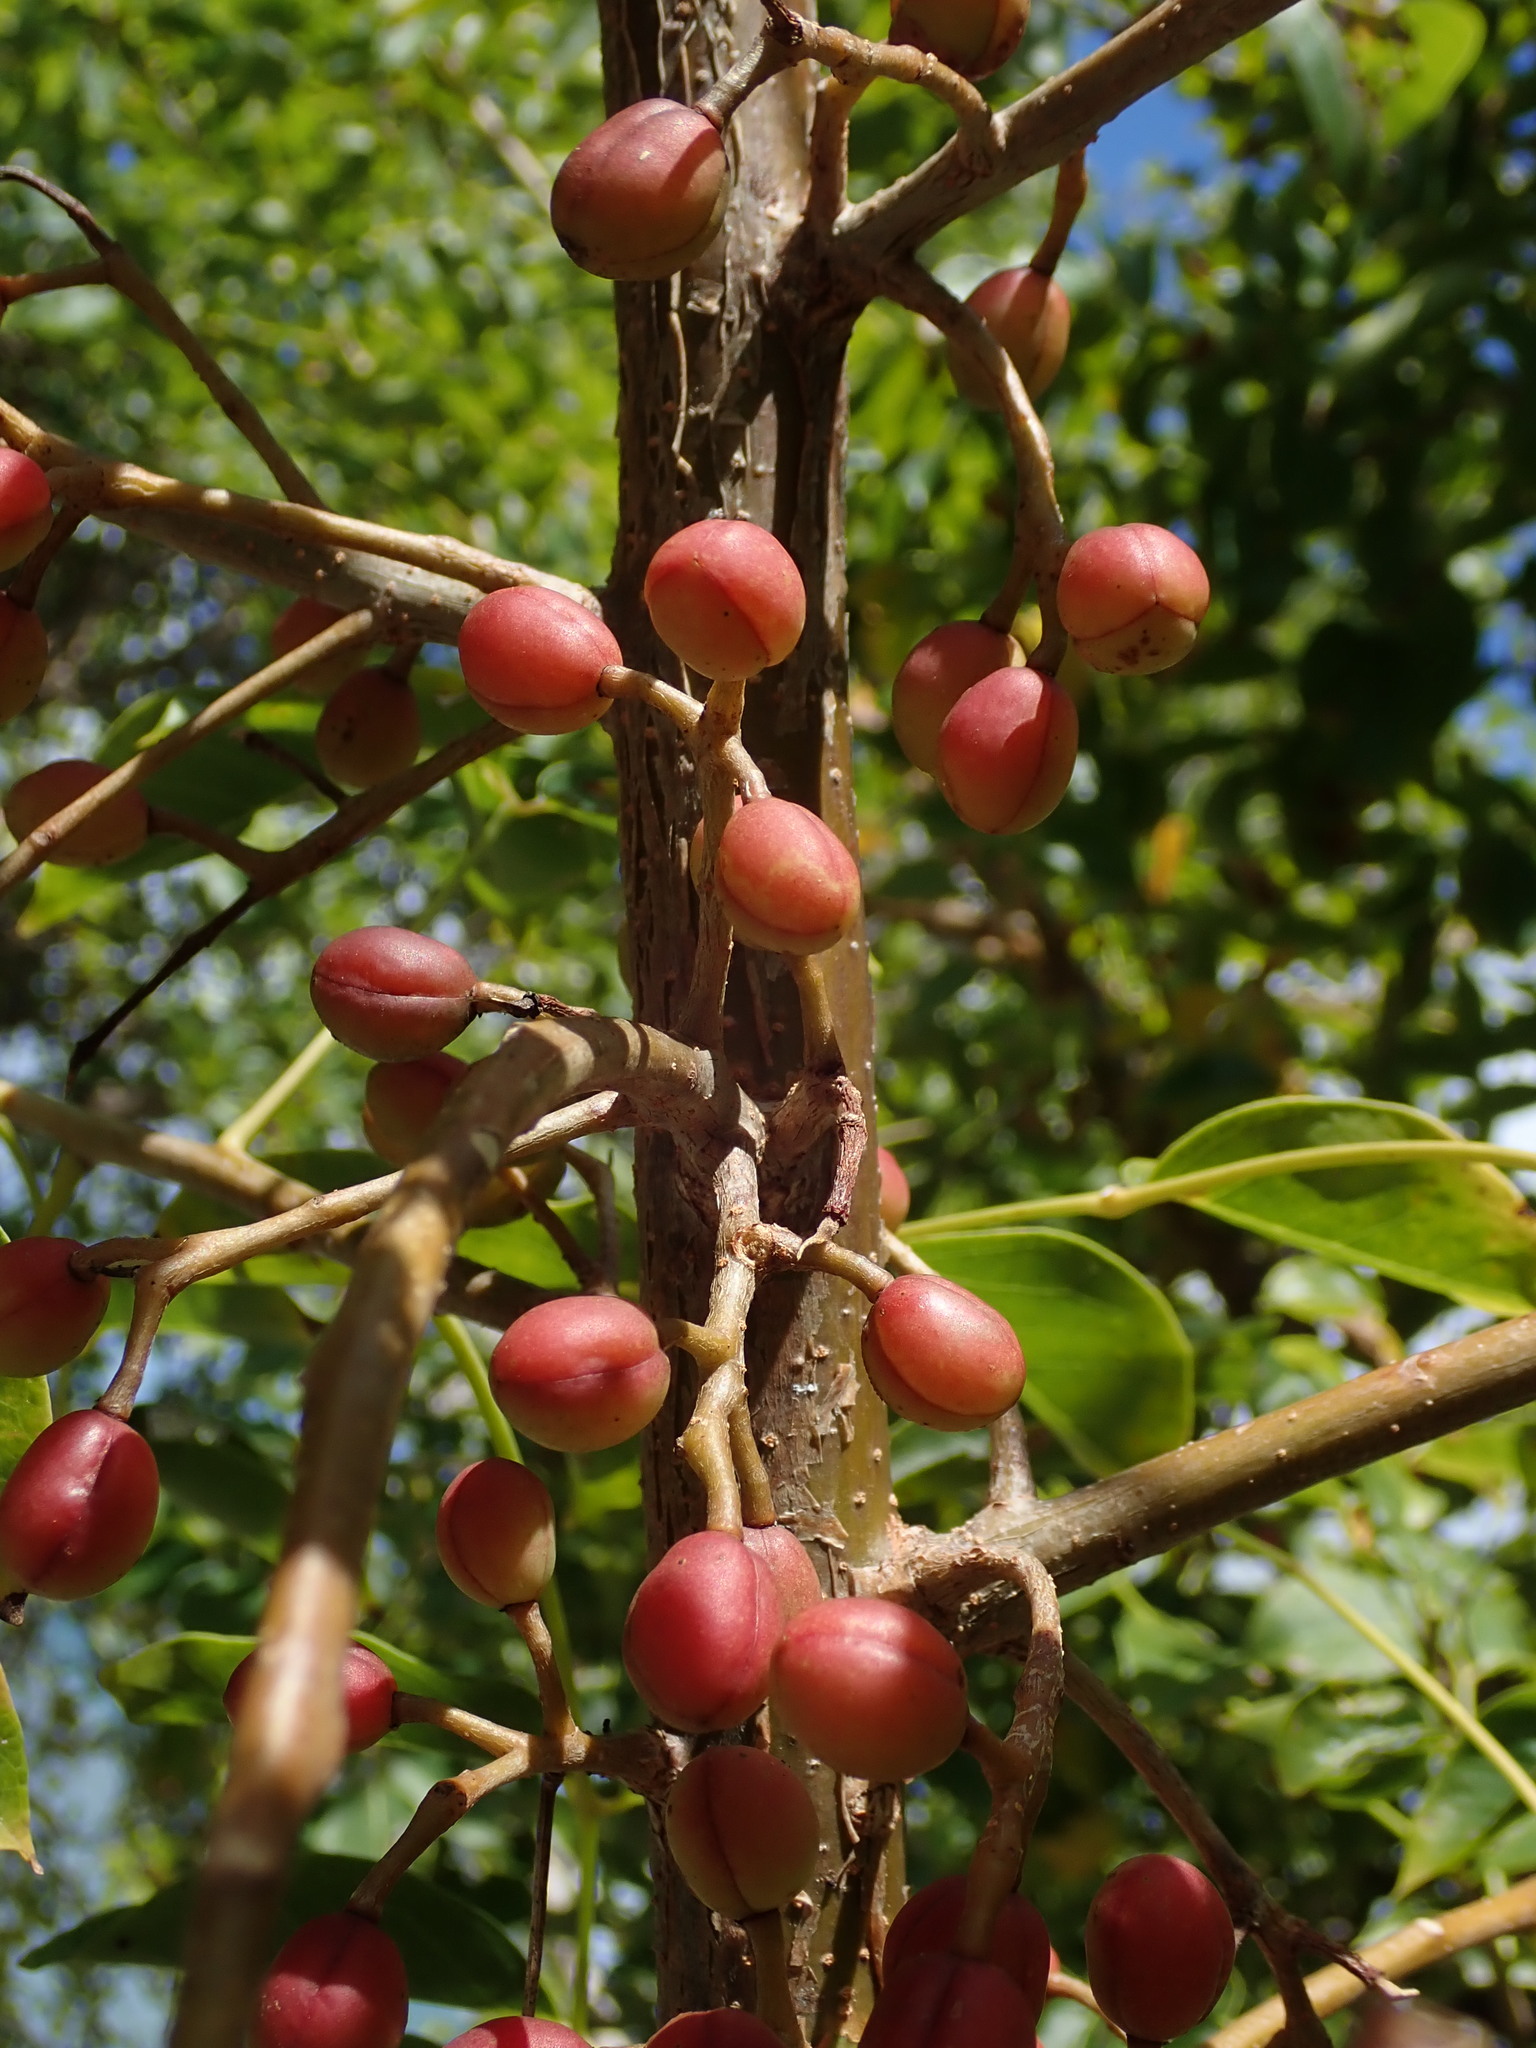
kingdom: Plantae
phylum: Tracheophyta
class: Magnoliopsida
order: Sapindales
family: Burseraceae
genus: Bursera
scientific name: Bursera simaruba
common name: Turpentine tree
